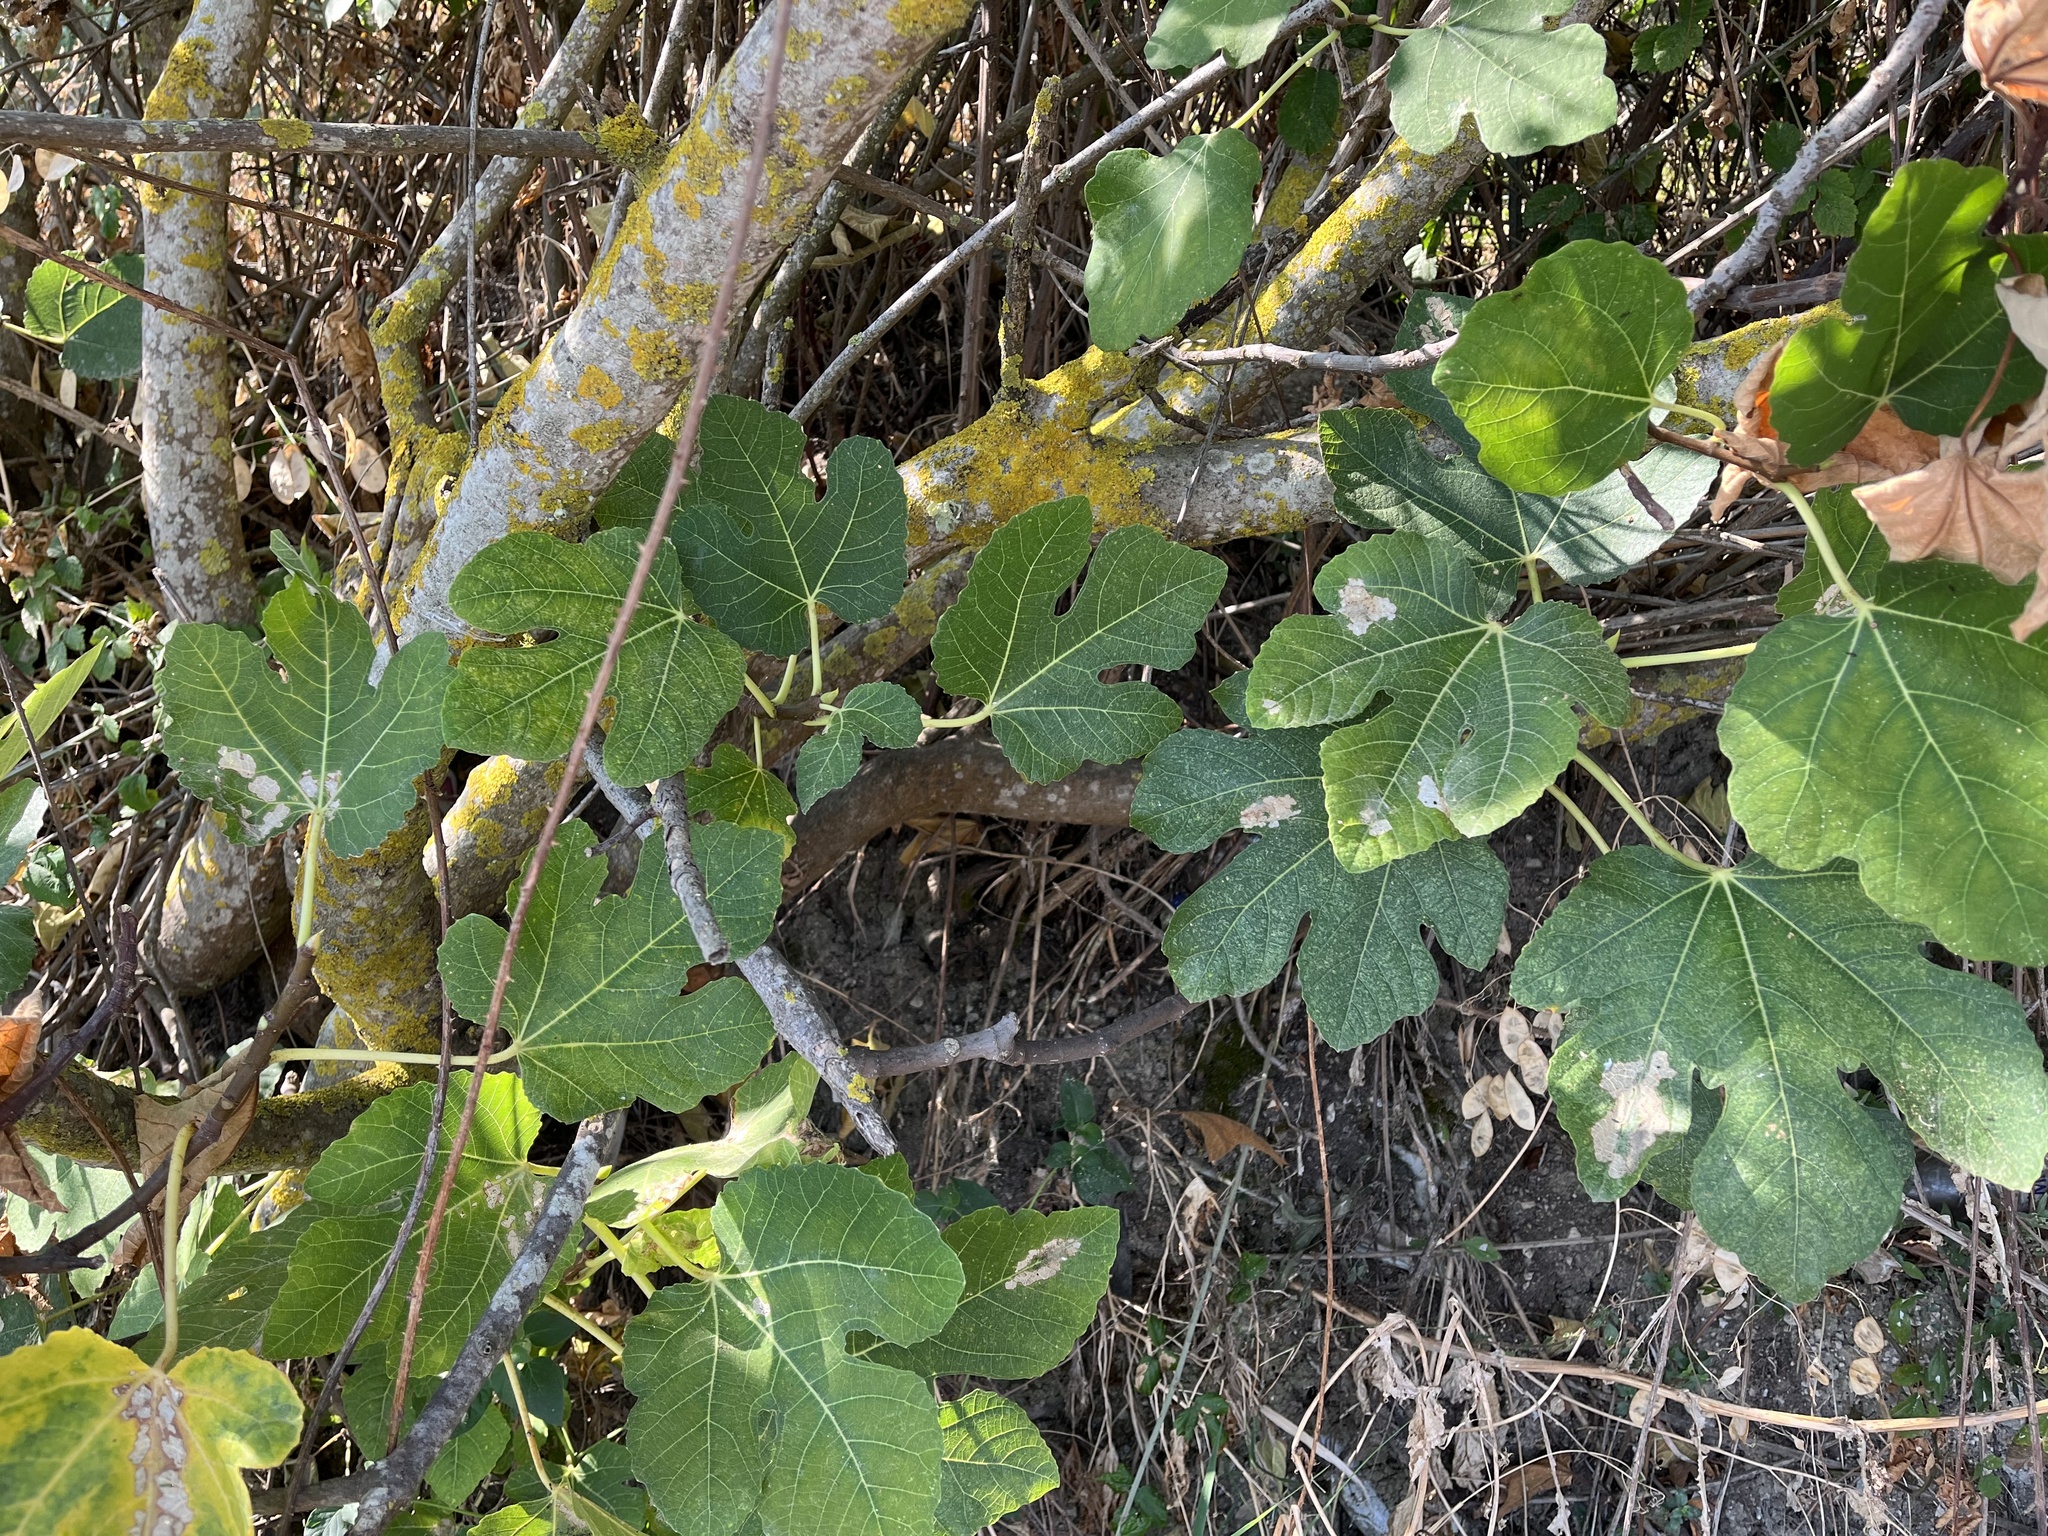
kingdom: Plantae
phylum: Tracheophyta
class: Magnoliopsida
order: Rosales
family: Moraceae
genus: Ficus
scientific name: Ficus carica
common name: Fig
